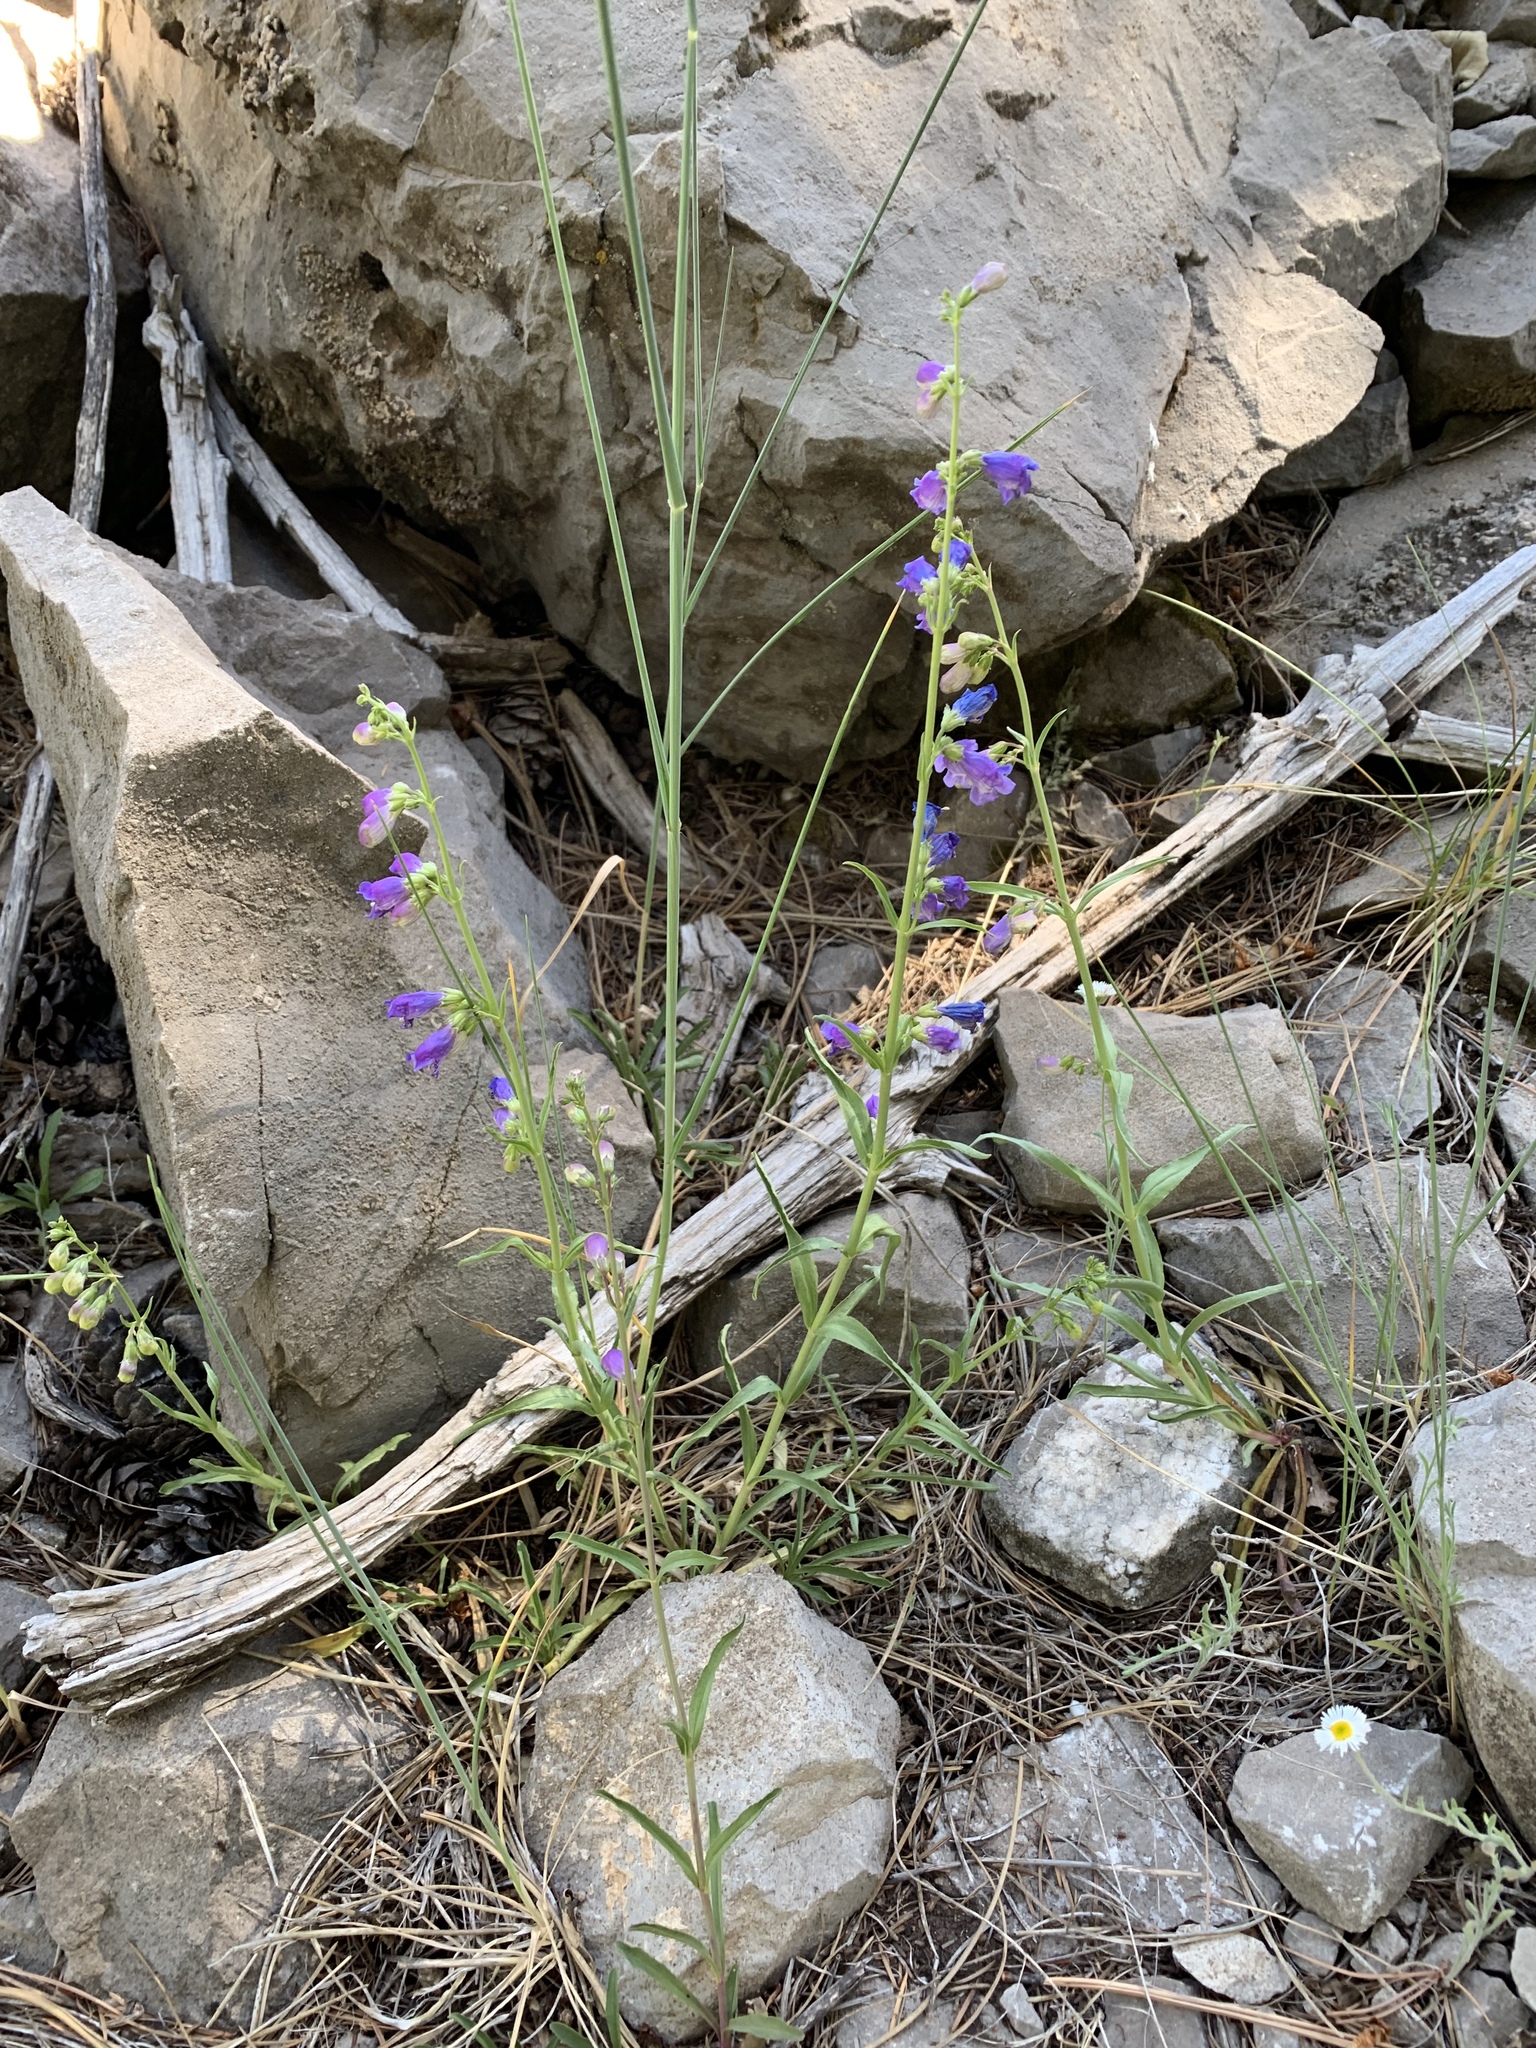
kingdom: Plantae
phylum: Tracheophyta
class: Magnoliopsida
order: Lamiales
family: Plantaginaceae
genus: Penstemon
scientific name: Penstemon neomexicanus
